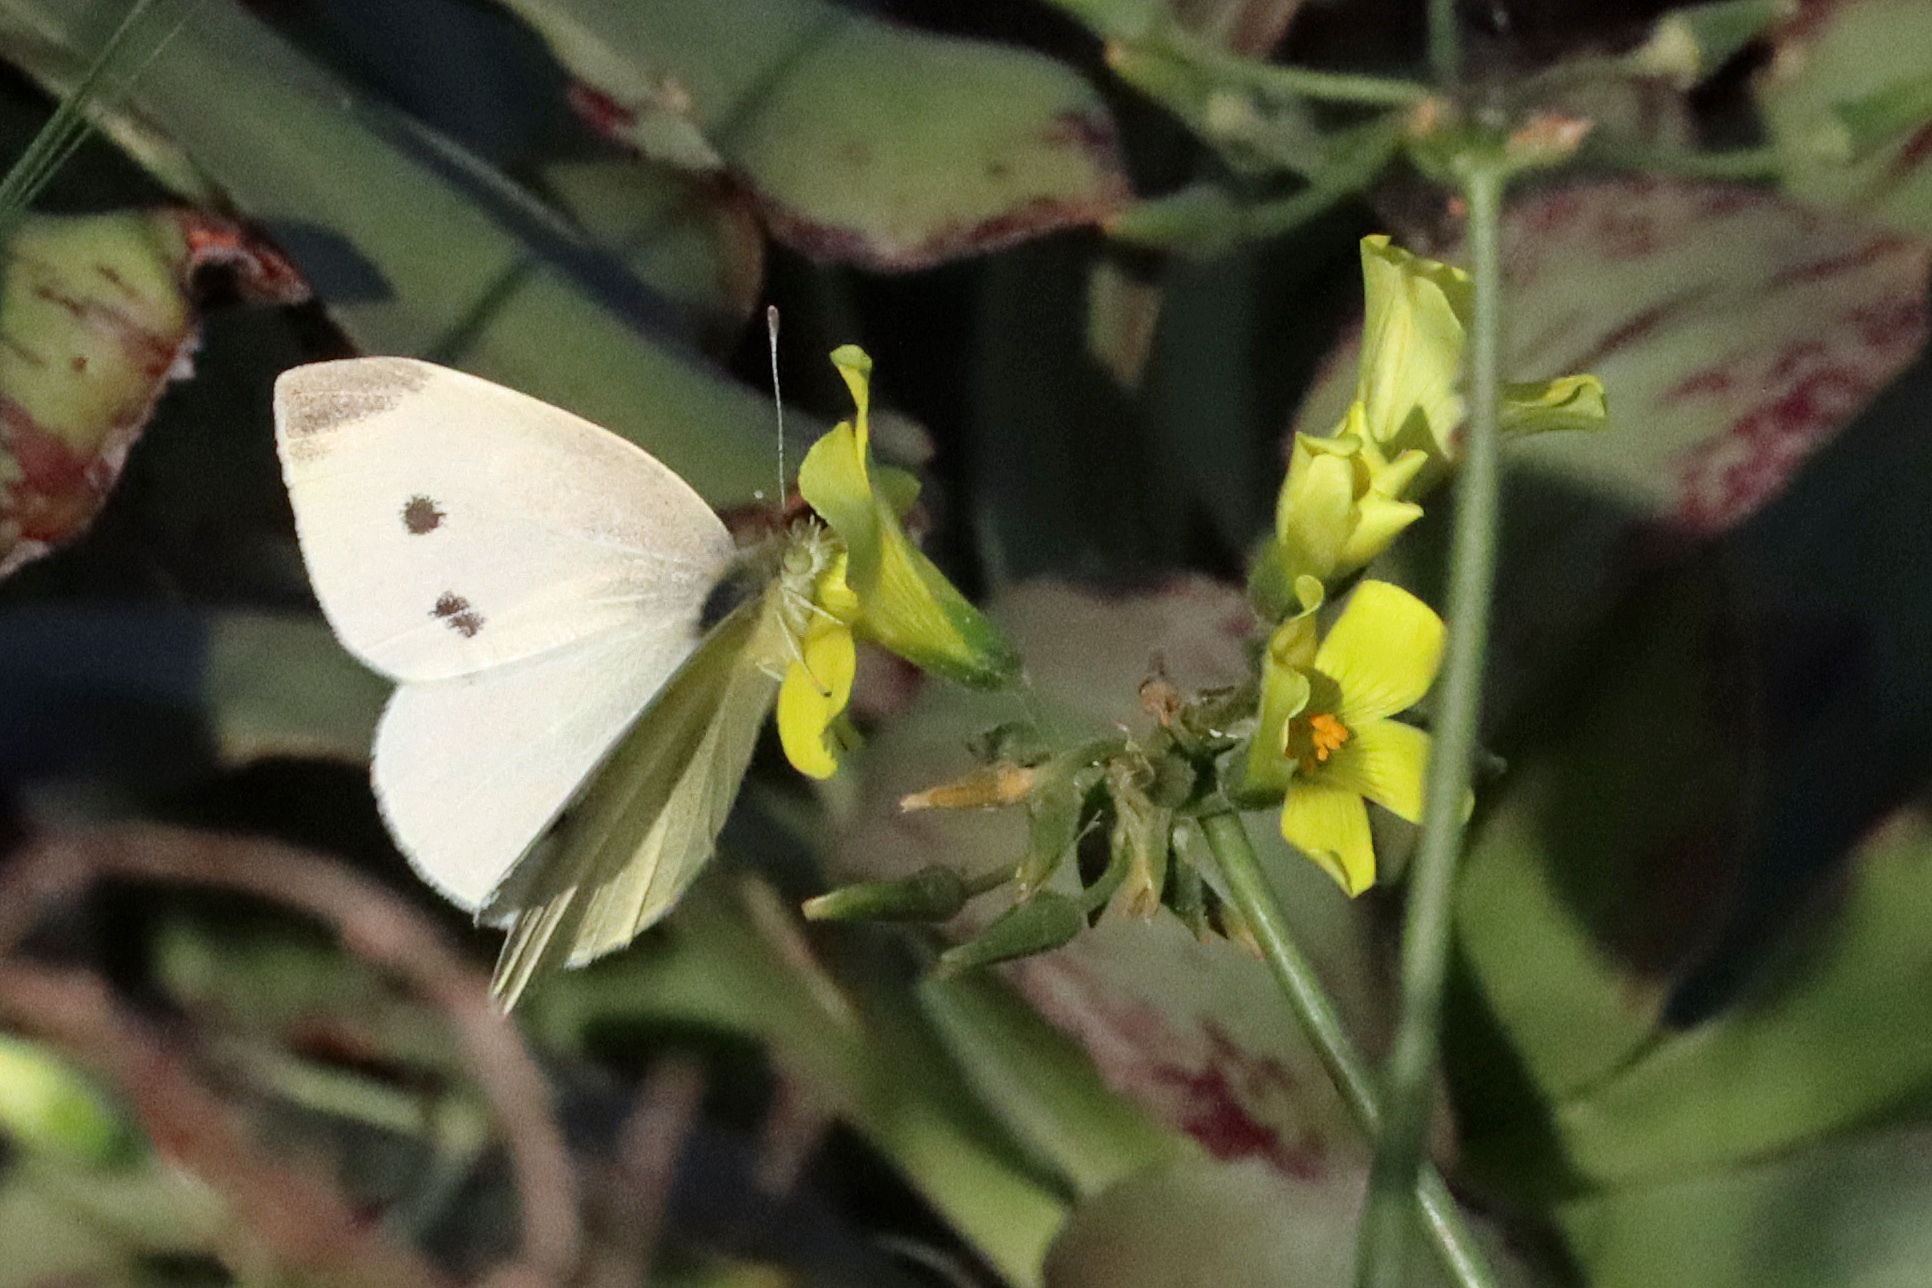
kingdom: Animalia
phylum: Arthropoda
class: Insecta
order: Lepidoptera
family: Pieridae
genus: Pieris
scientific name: Pieris rapae
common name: Small white
